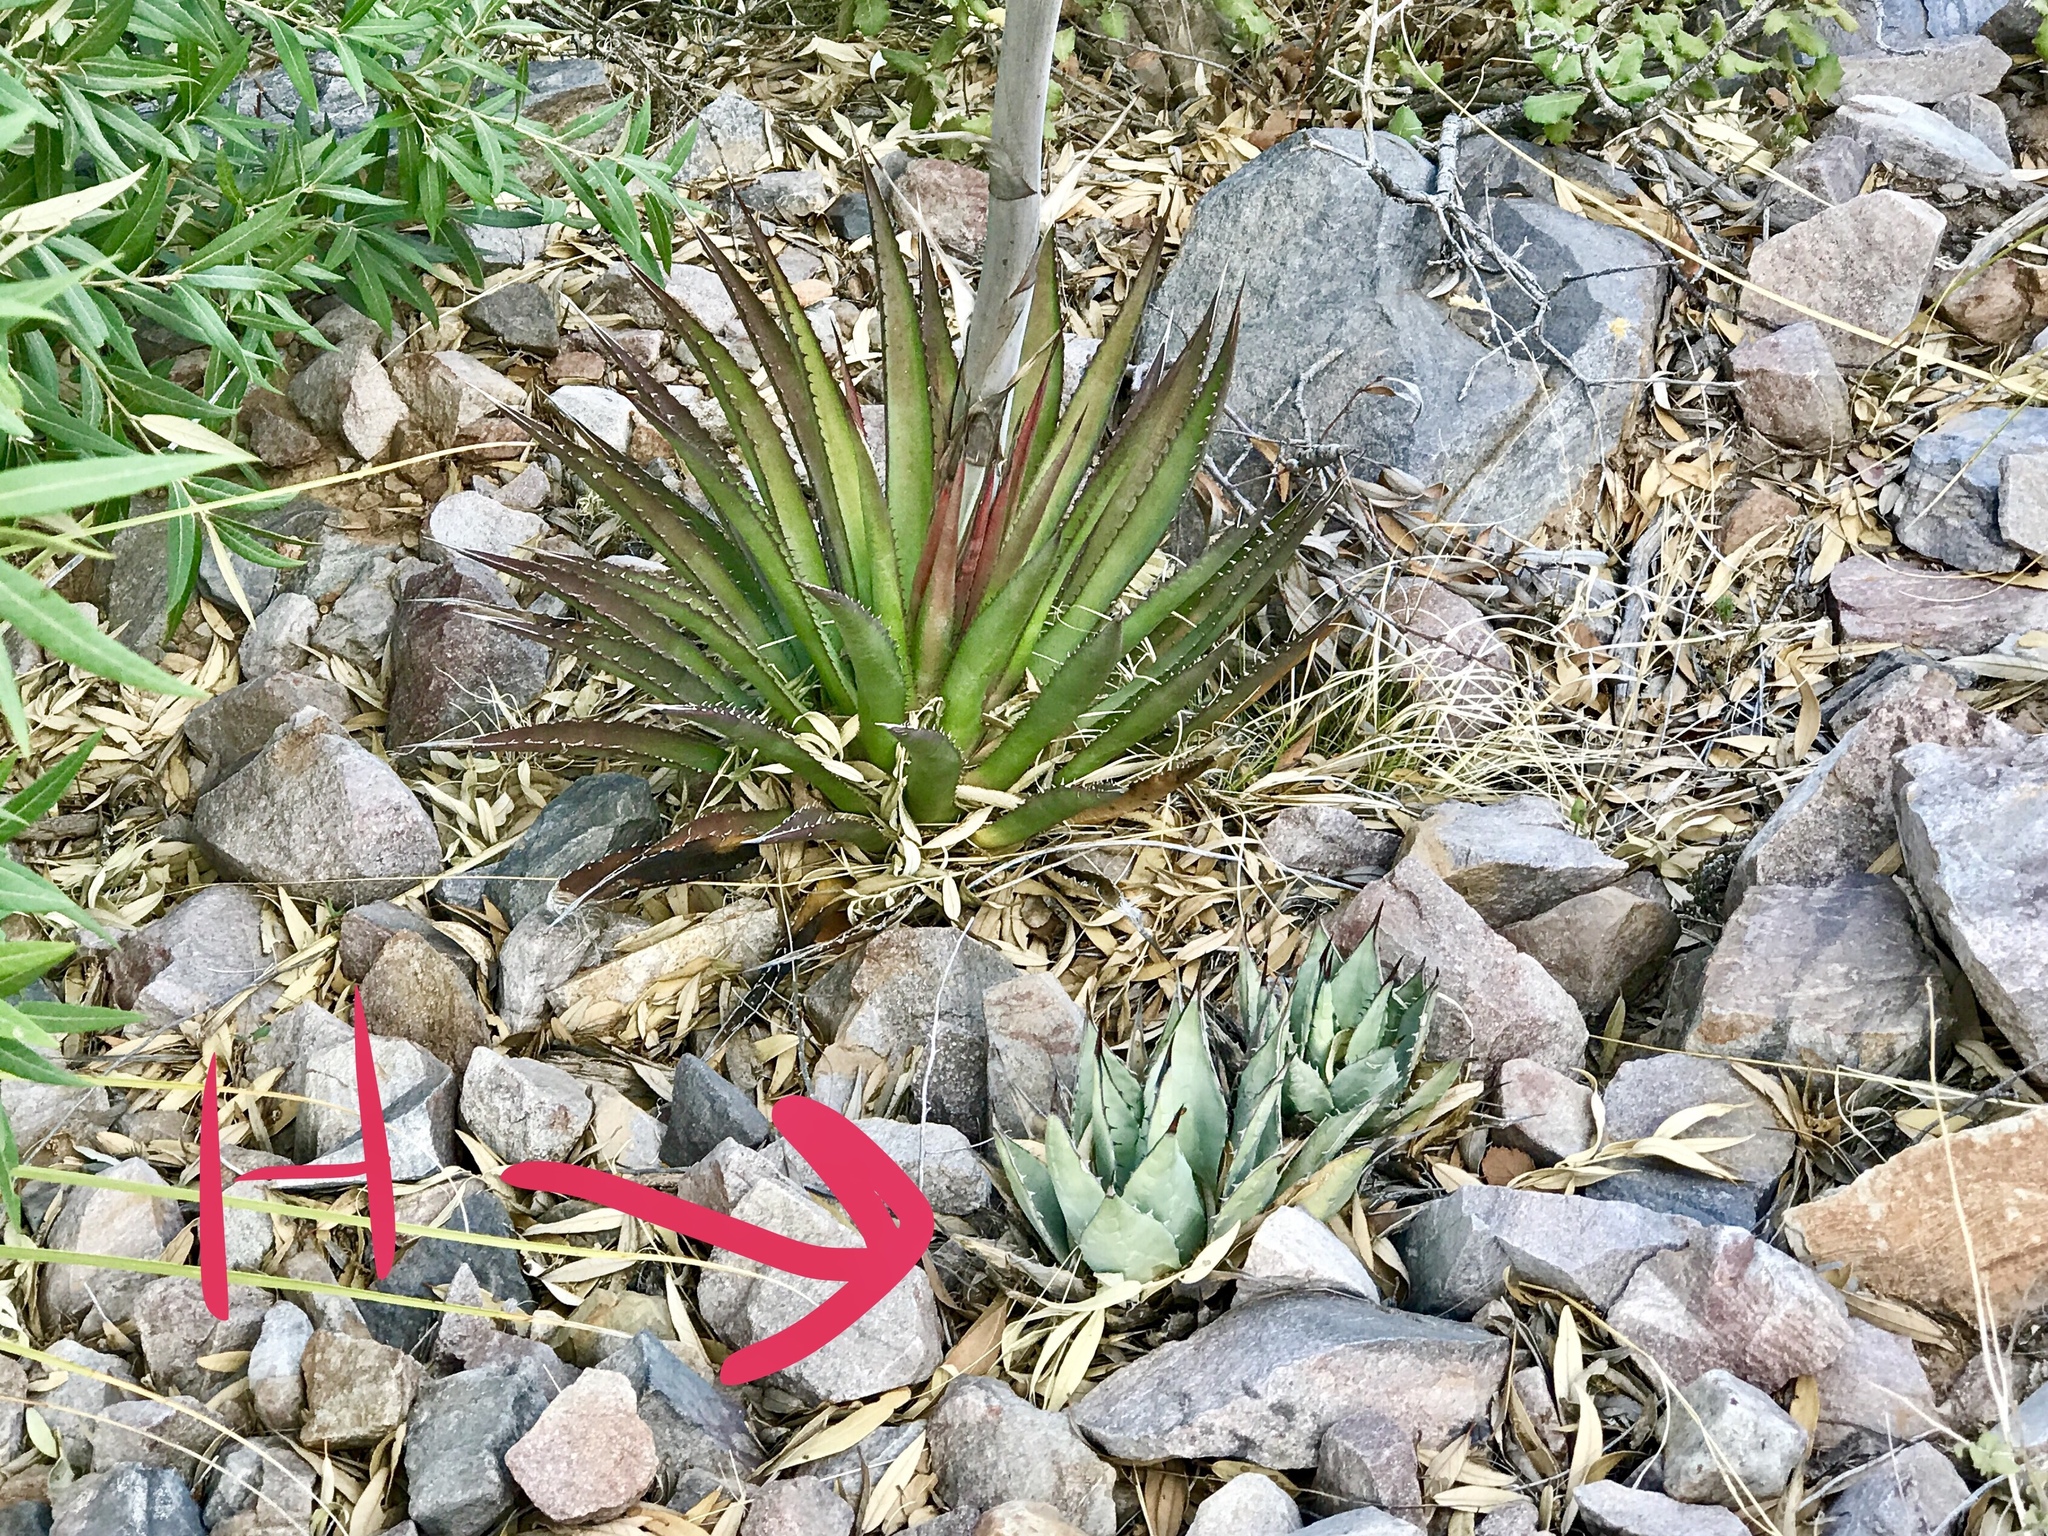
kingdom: Plantae
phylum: Tracheophyta
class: Liliopsida
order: Asparagales
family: Asparagaceae
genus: Agave
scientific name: Agave flexispina
